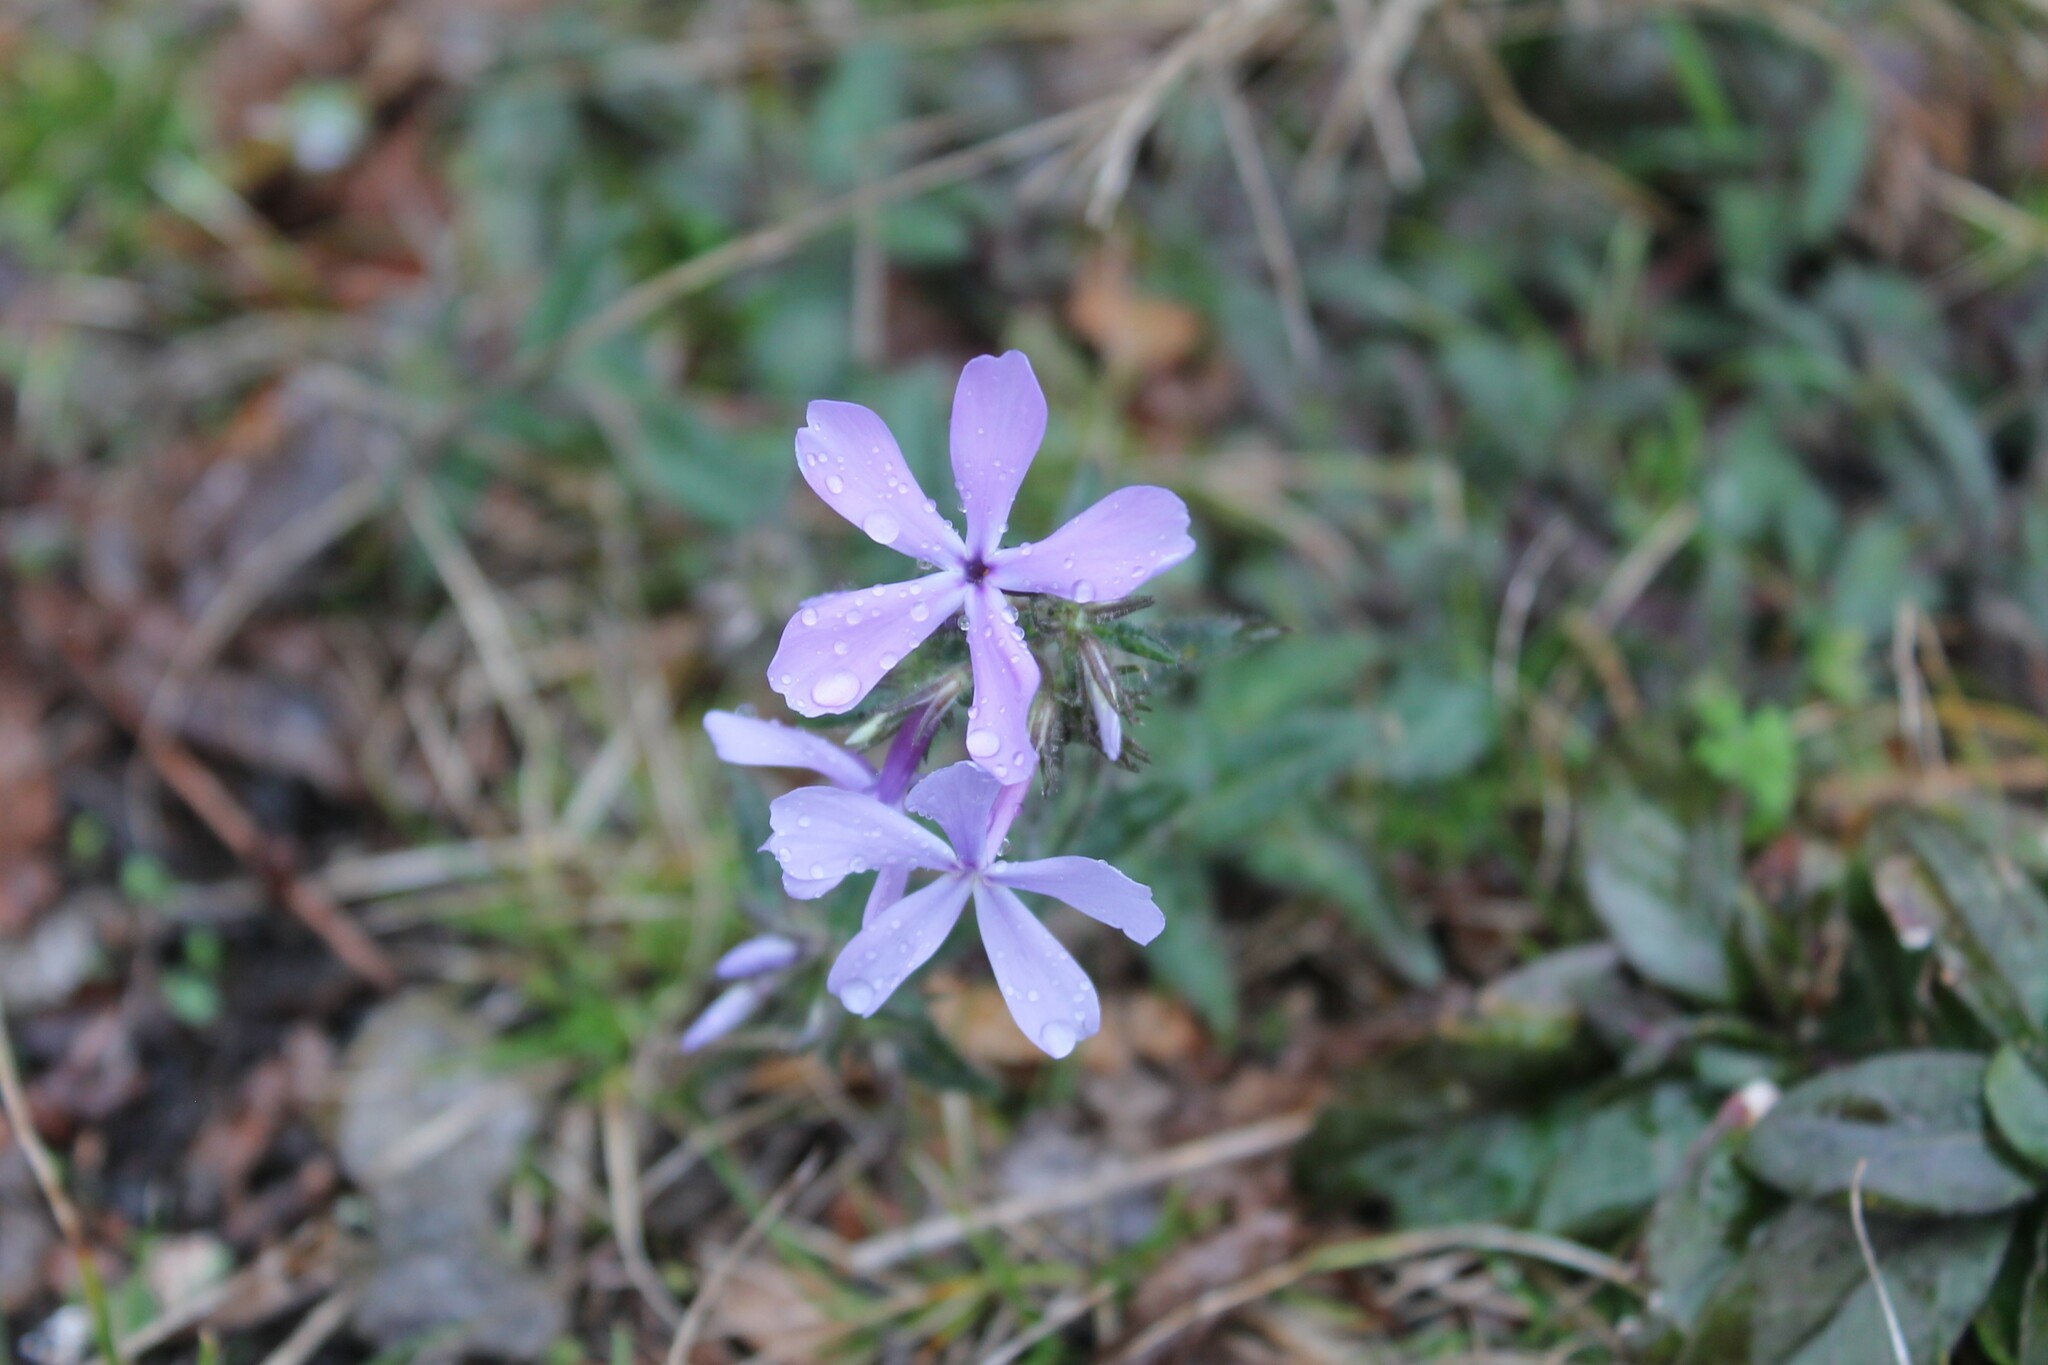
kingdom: Plantae
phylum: Tracheophyta
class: Magnoliopsida
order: Ericales
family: Polemoniaceae
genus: Phlox
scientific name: Phlox divaricata
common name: Blue phlox
